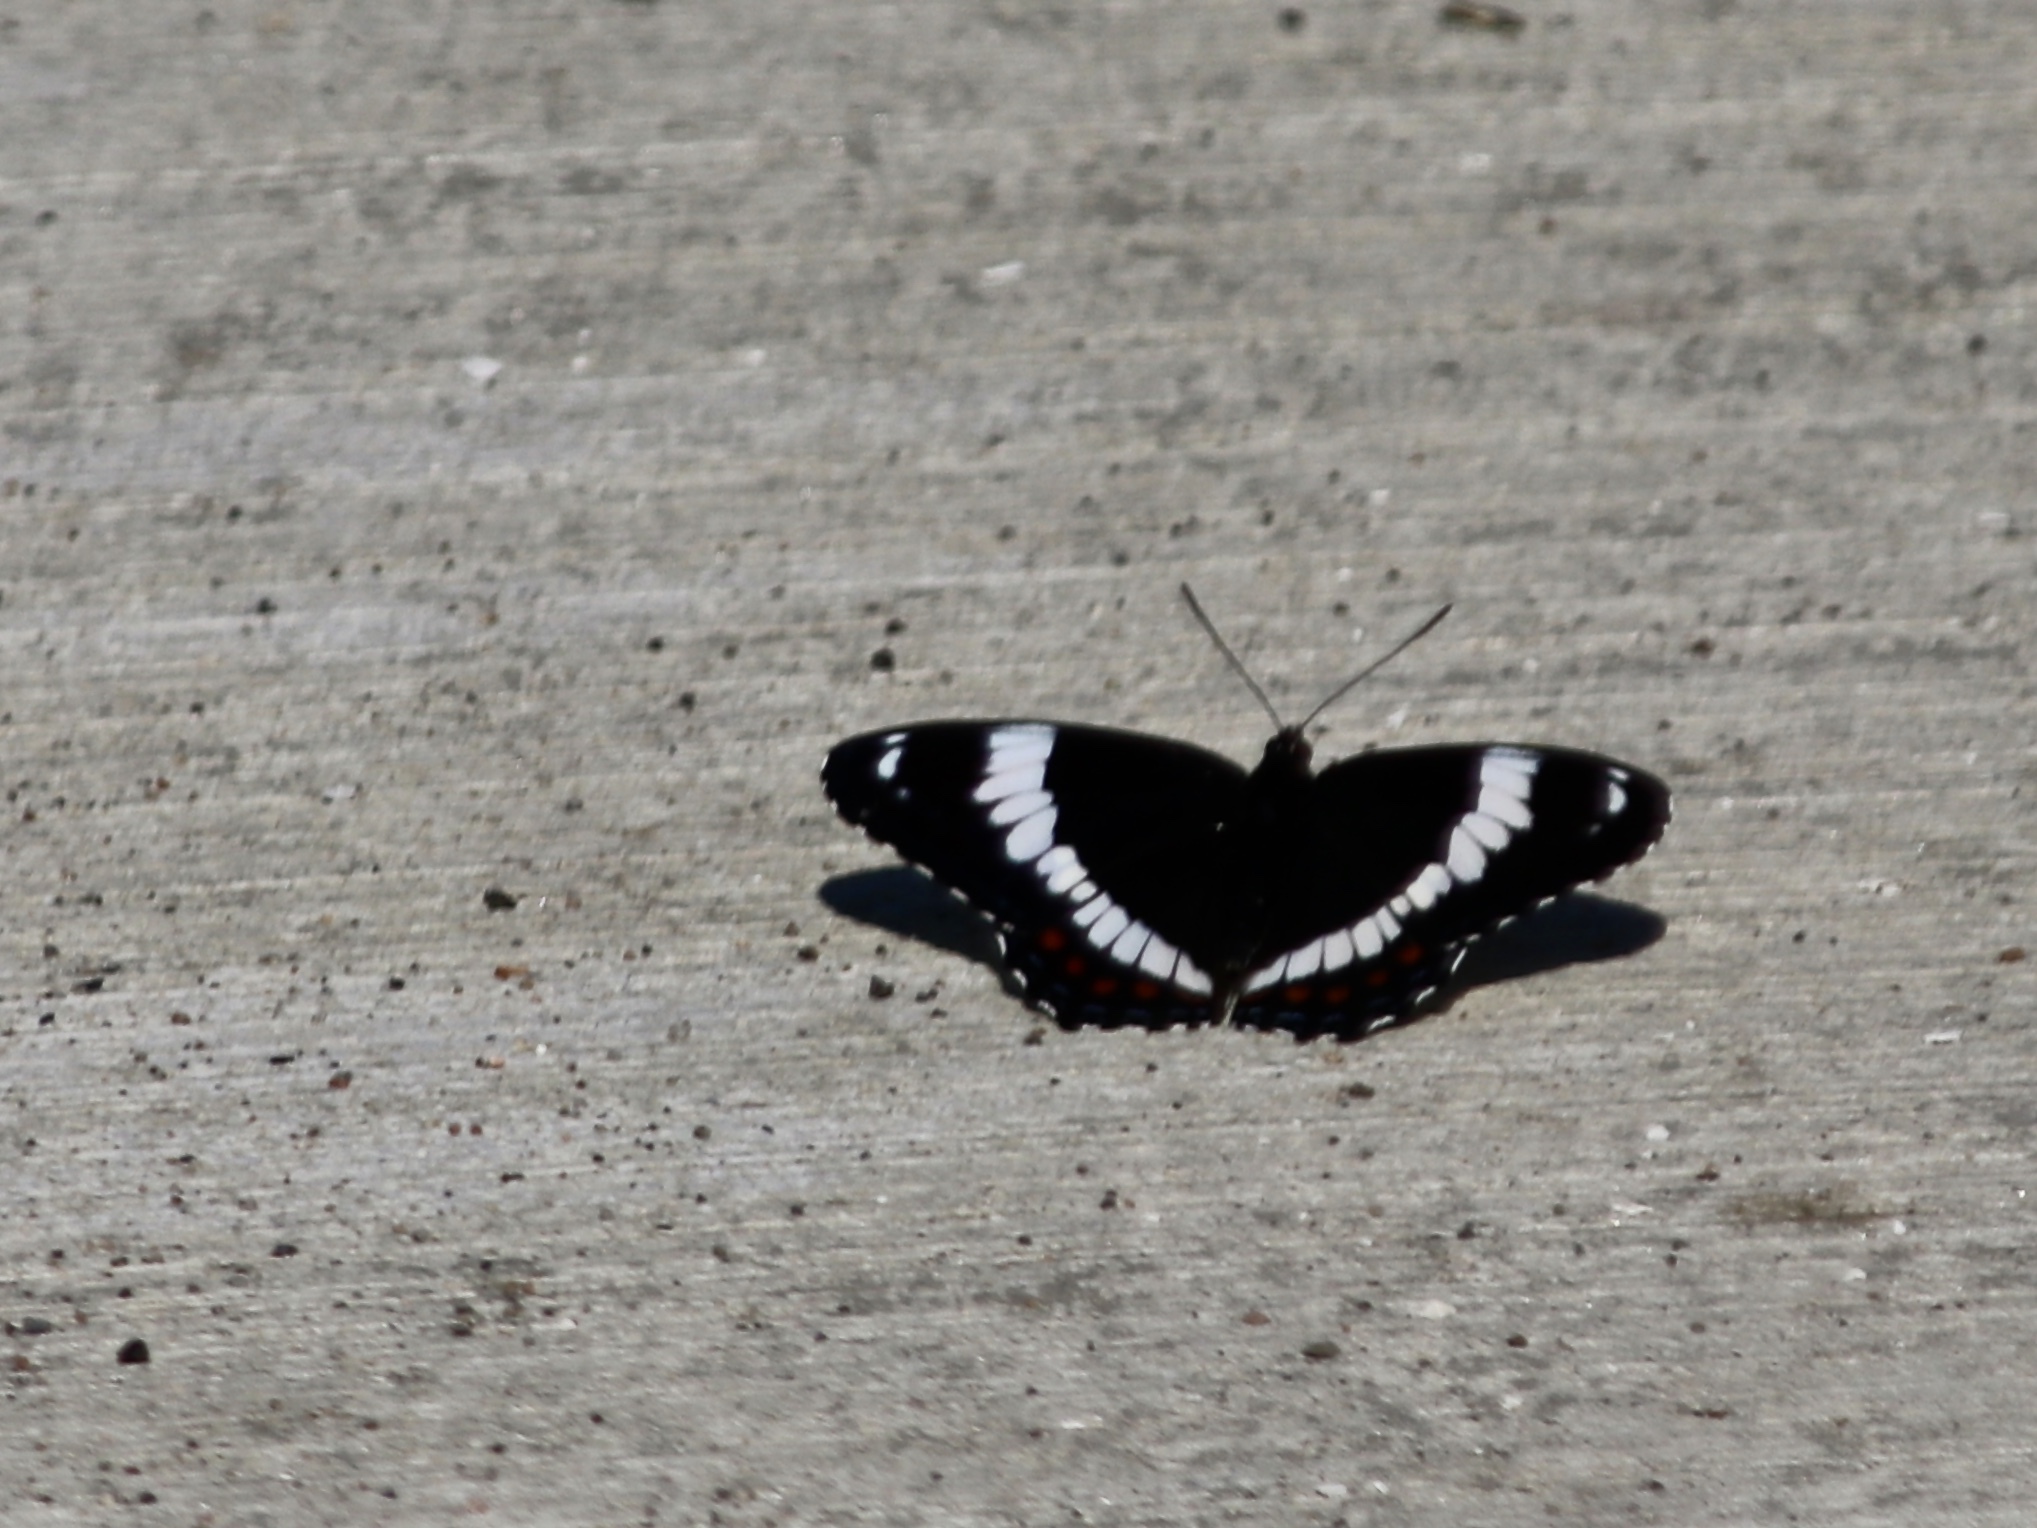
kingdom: Animalia
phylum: Arthropoda
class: Insecta
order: Lepidoptera
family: Nymphalidae
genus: Limenitis
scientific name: Limenitis arthemis
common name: Red-spotted admiral
